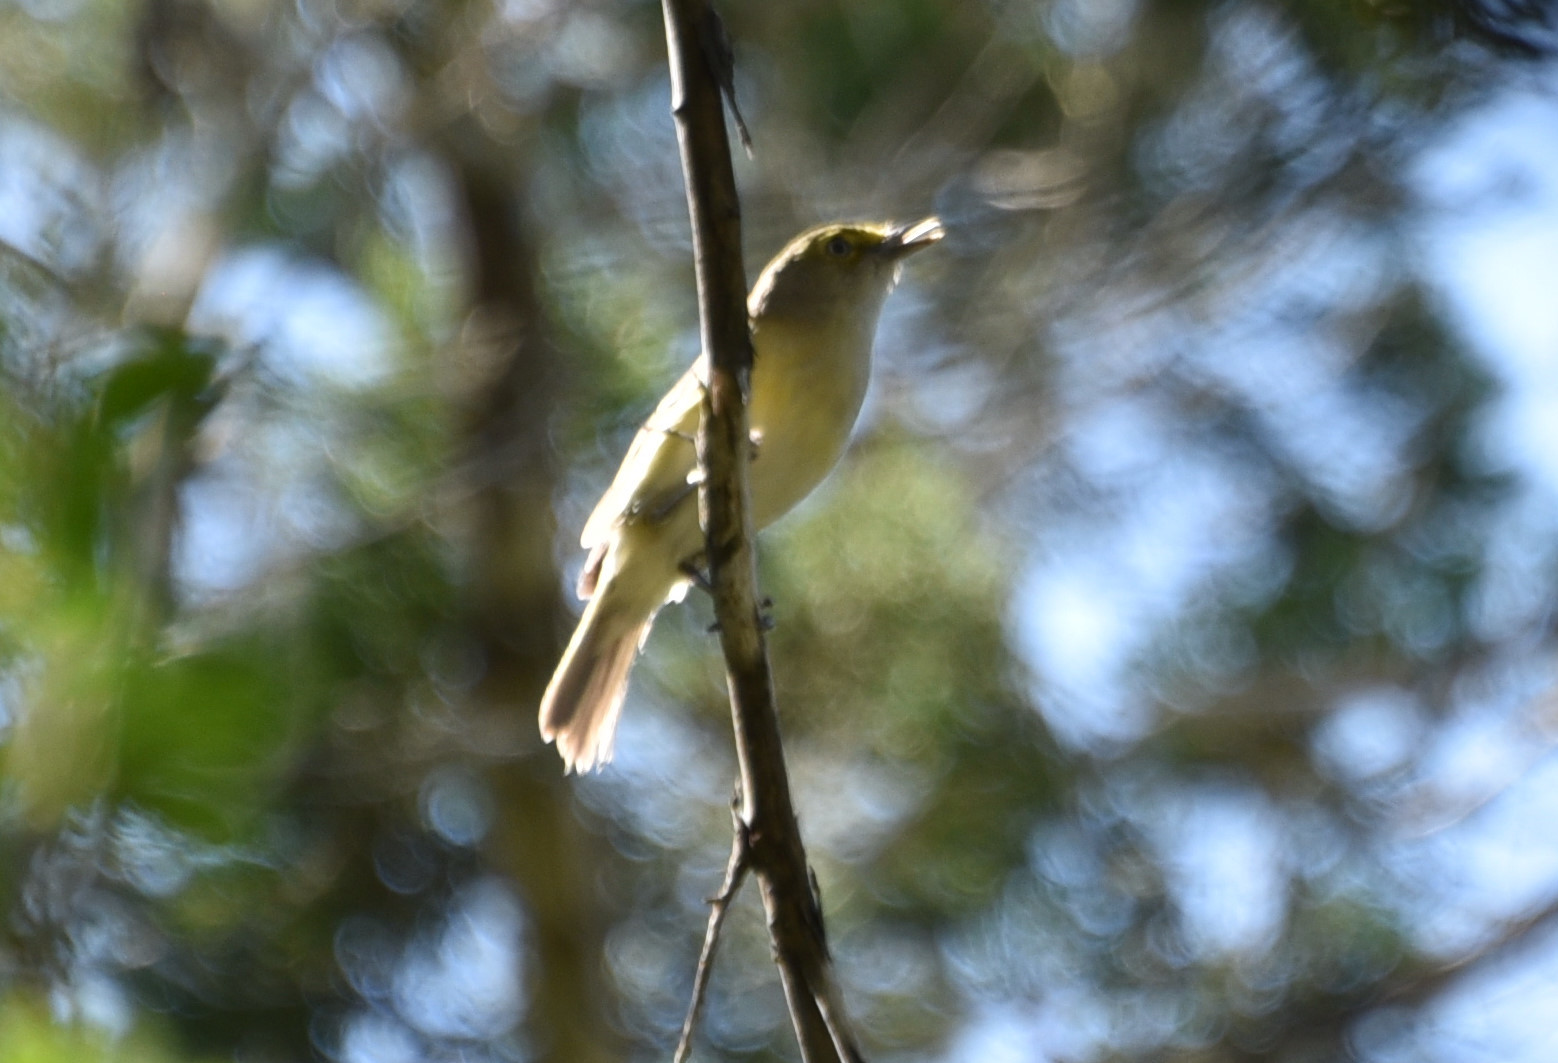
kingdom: Animalia
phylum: Chordata
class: Aves
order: Passeriformes
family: Vireonidae
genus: Vireo
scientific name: Vireo griseus
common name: White-eyed vireo
